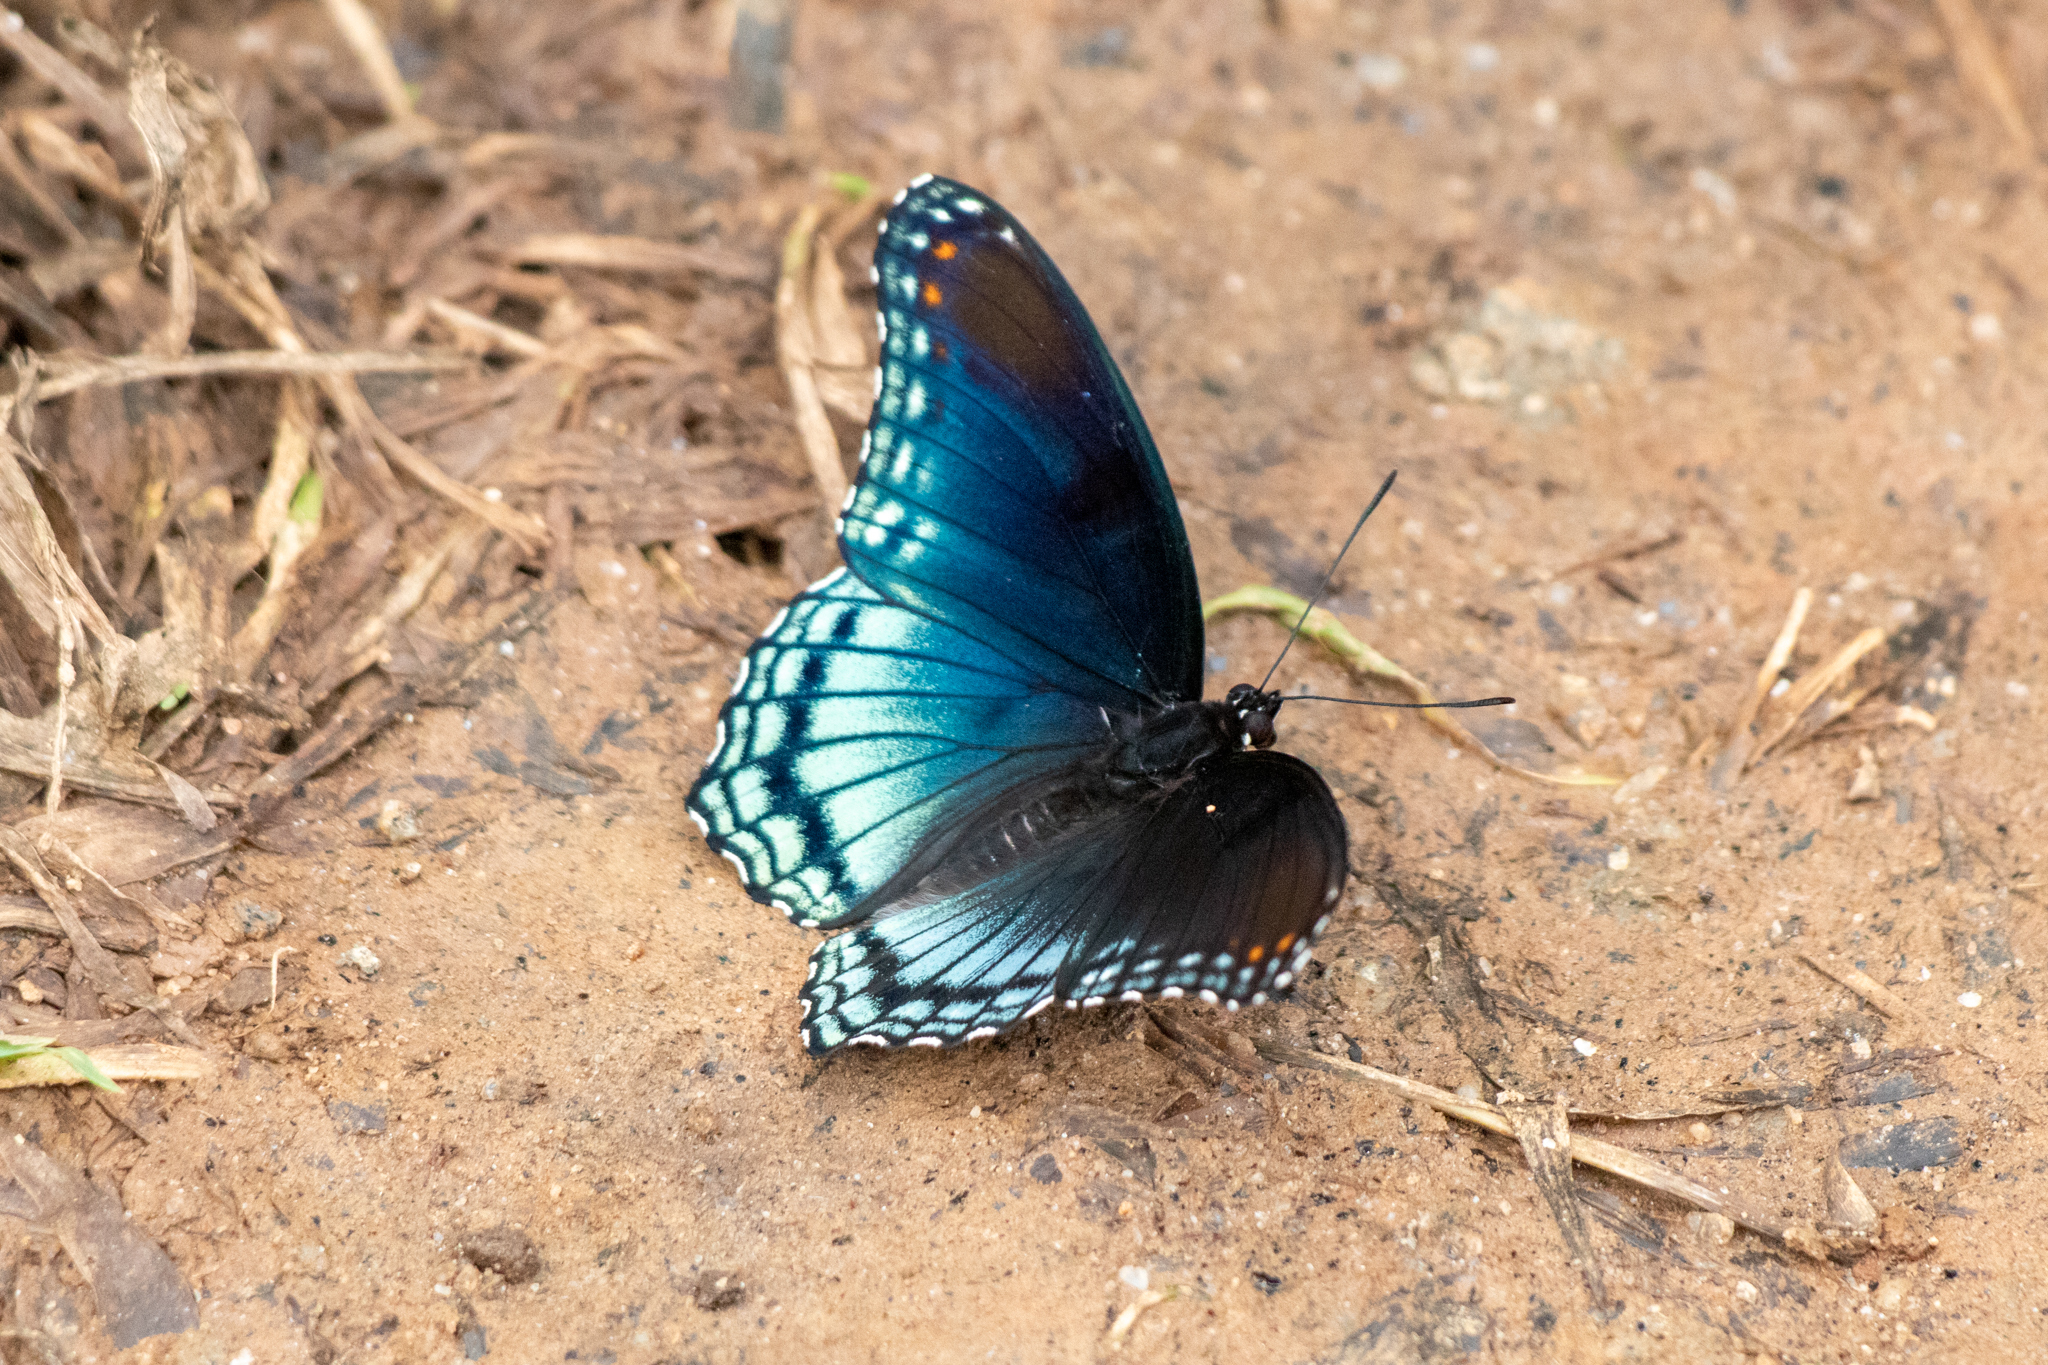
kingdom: Animalia
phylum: Arthropoda
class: Insecta
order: Lepidoptera
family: Nymphalidae
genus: Limenitis
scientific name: Limenitis astyanax
